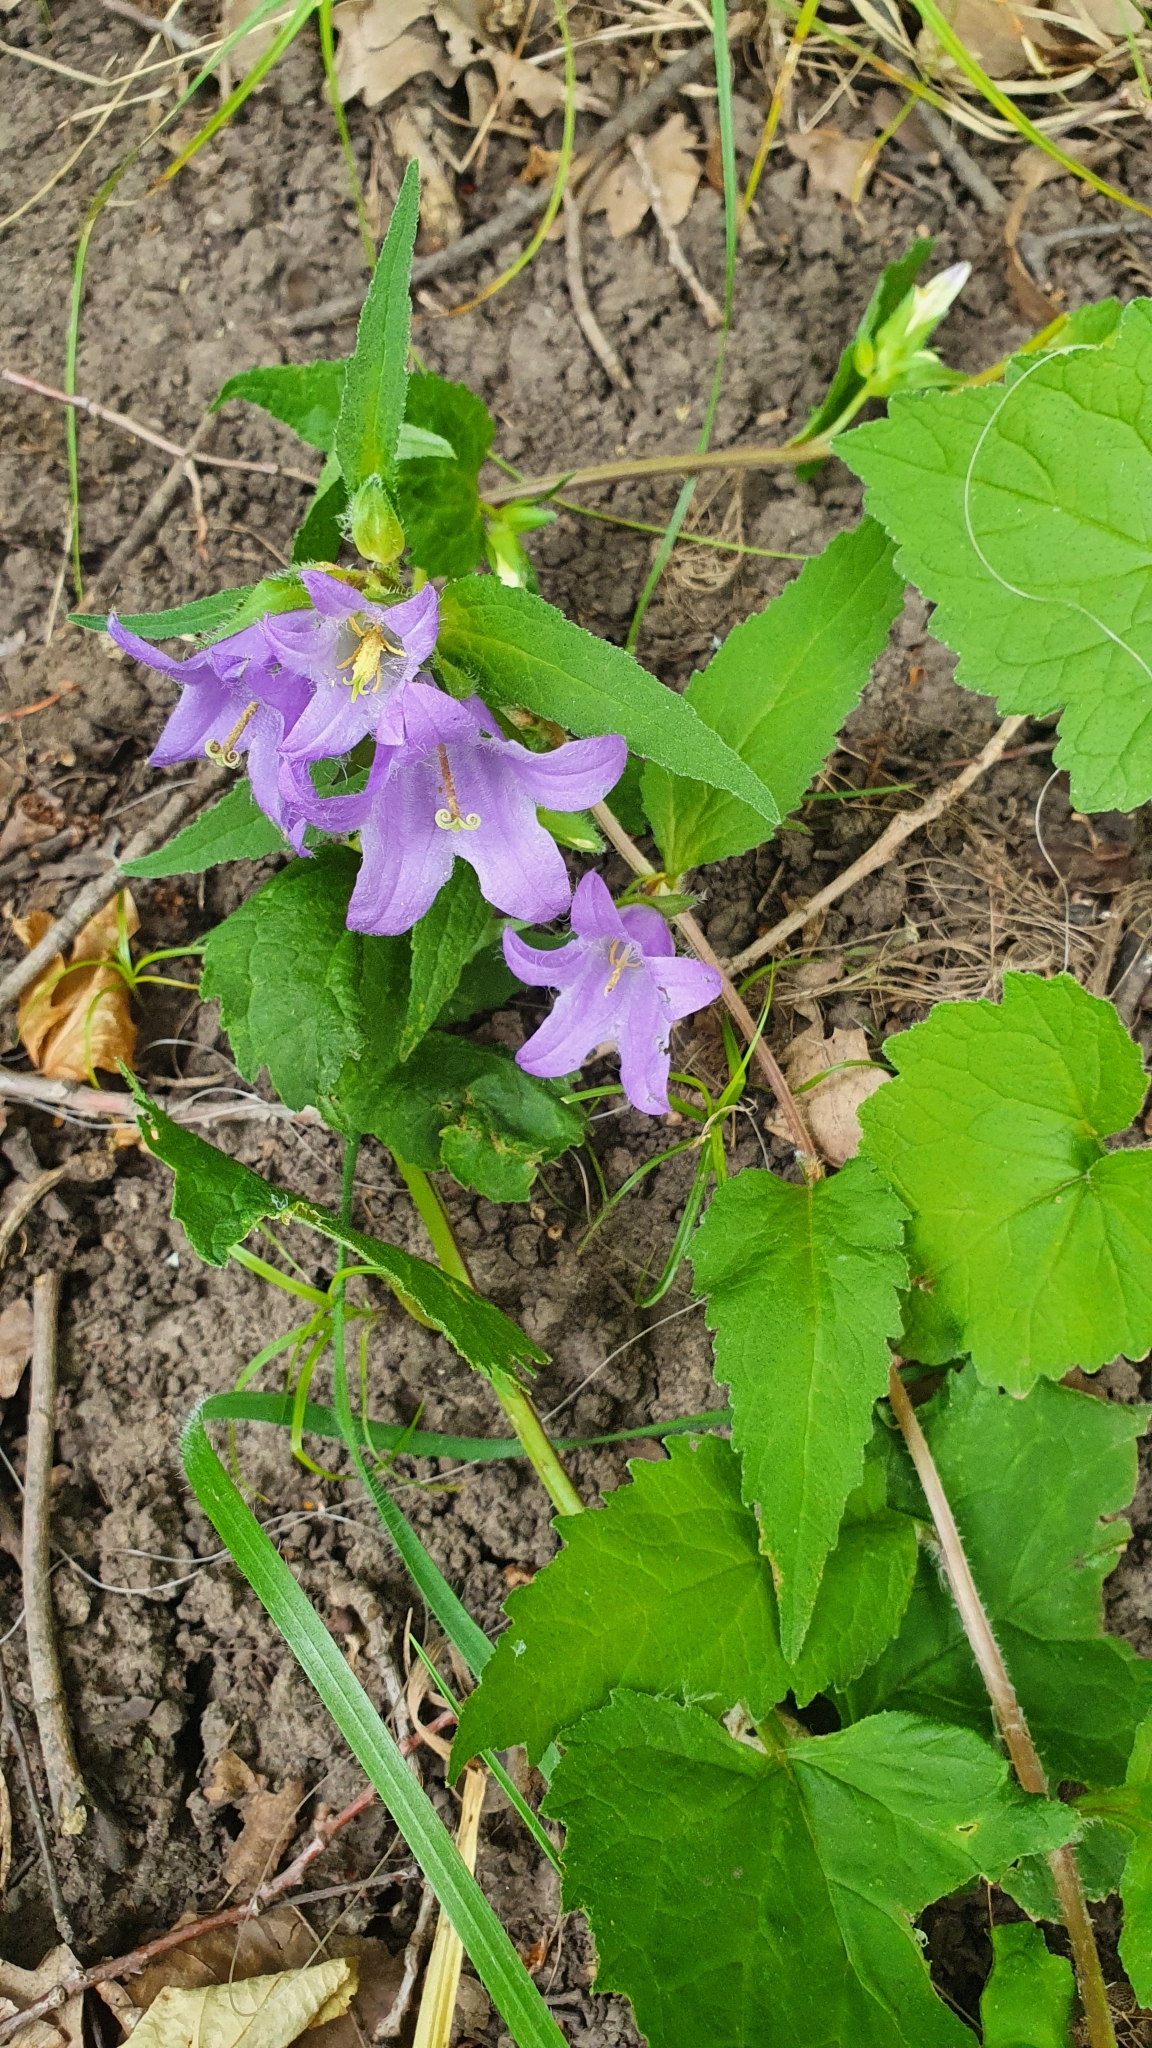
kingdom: Plantae
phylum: Tracheophyta
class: Magnoliopsida
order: Asterales
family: Campanulaceae
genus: Campanula
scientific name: Campanula trachelium
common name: Nettle-leaved bellflower
